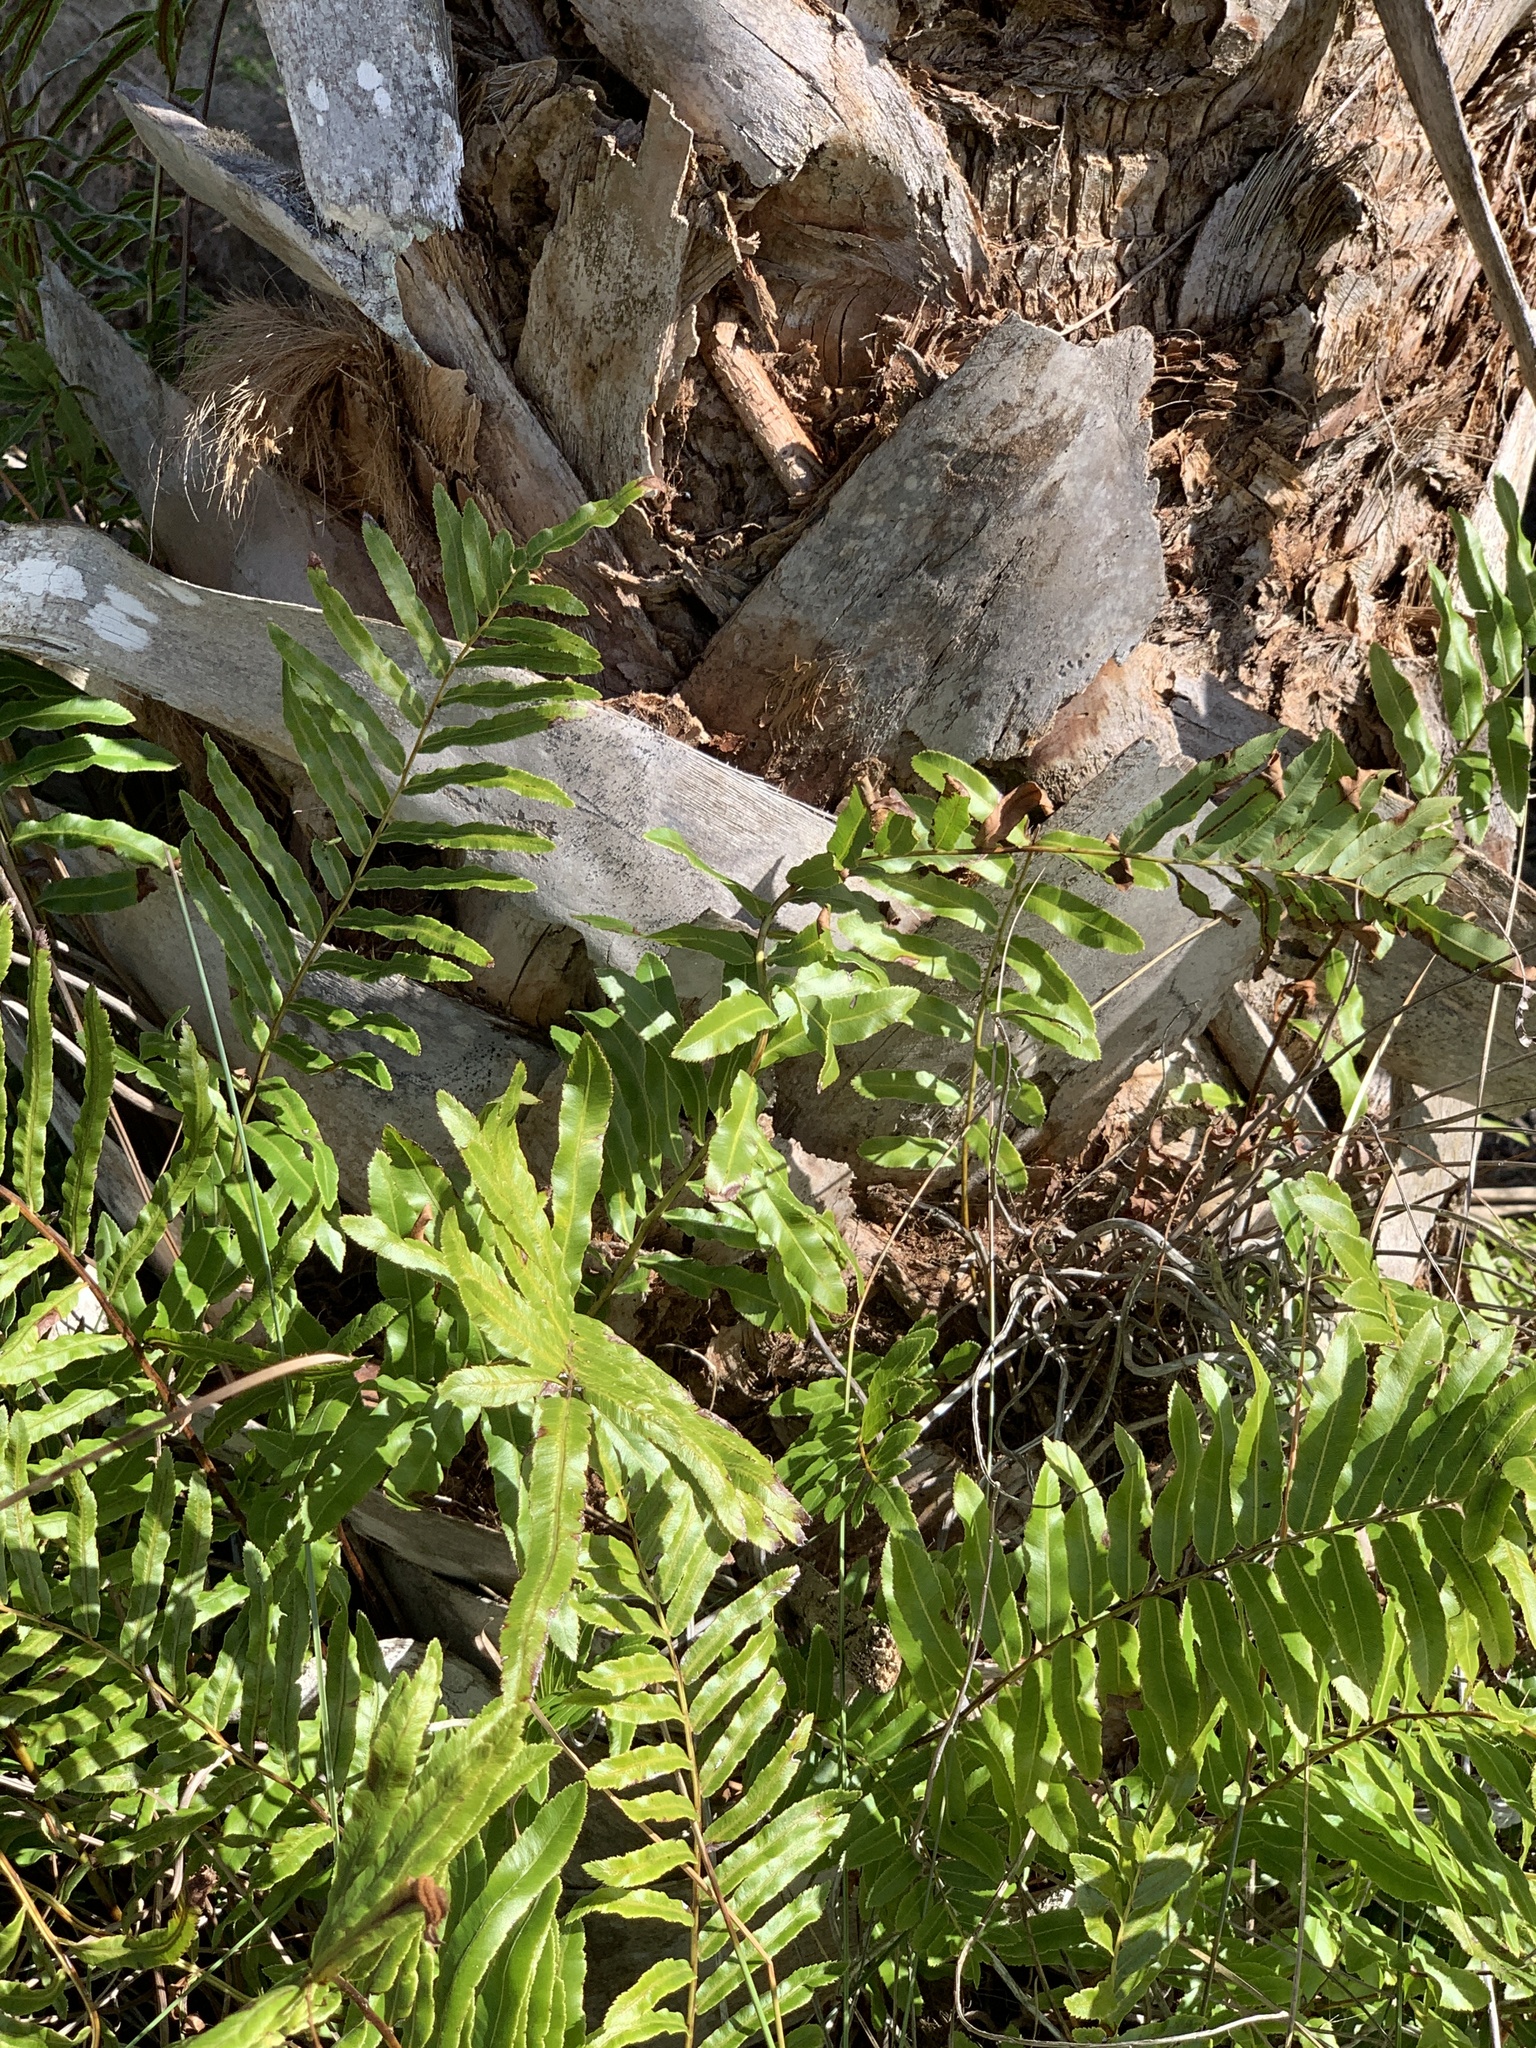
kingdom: Plantae
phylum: Tracheophyta
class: Polypodiopsida
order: Polypodiales
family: Blechnaceae
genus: Telmatoblechnum
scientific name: Telmatoblechnum serrulatum
